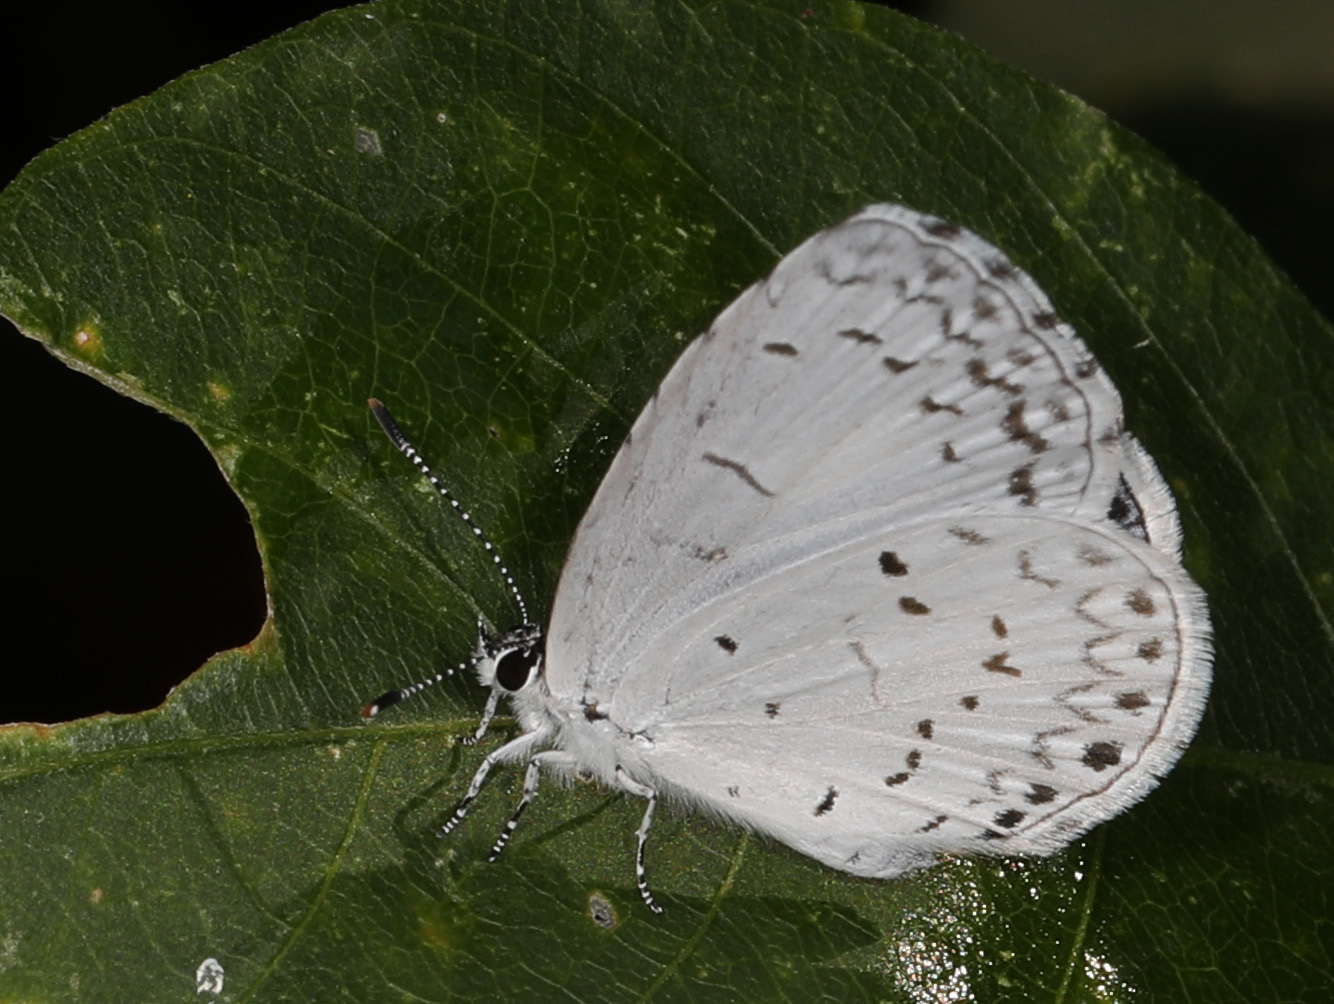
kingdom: Animalia
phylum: Arthropoda
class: Insecta
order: Lepidoptera
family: Lycaenidae
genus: Cyaniris
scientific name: Cyaniris neglecta
